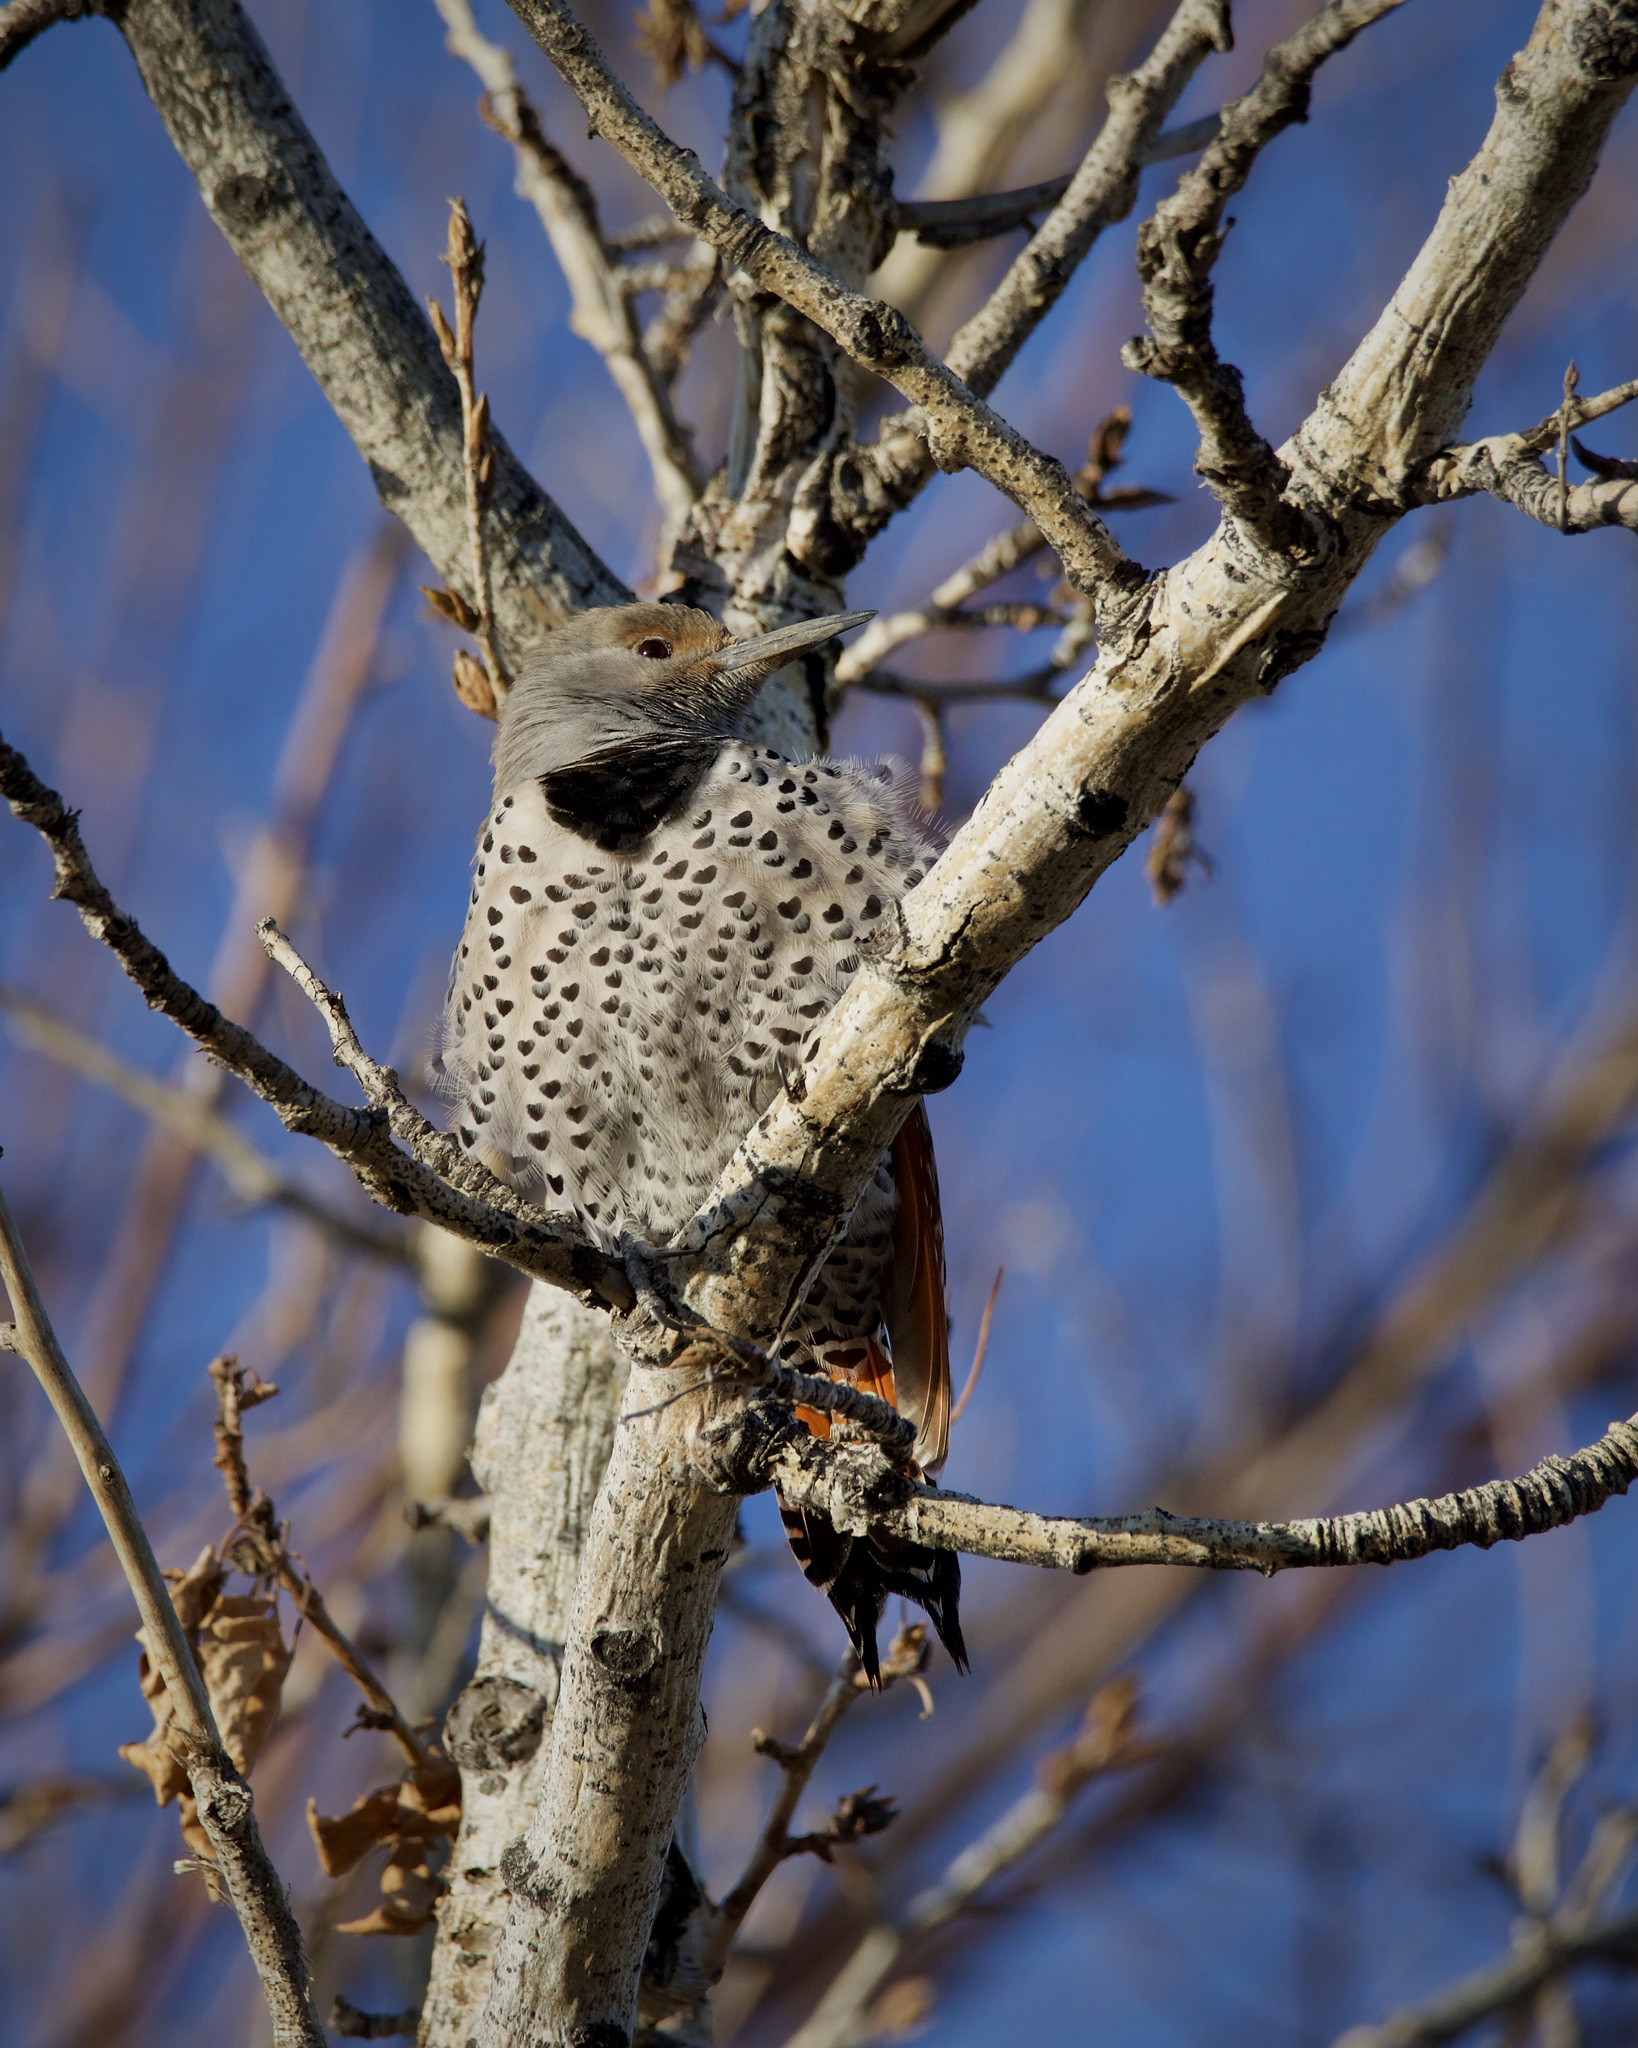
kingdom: Animalia
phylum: Chordata
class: Aves
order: Piciformes
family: Picidae
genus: Colaptes
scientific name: Colaptes auratus
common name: Northern flicker
